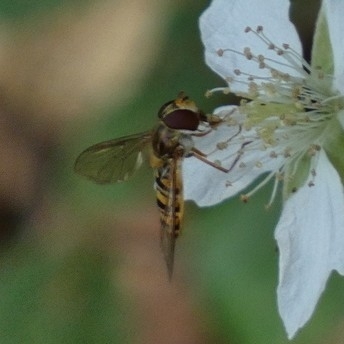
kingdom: Animalia
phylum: Arthropoda
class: Insecta
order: Diptera
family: Syrphidae
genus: Episyrphus
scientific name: Episyrphus balteatus
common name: Marmalade hoverfly
